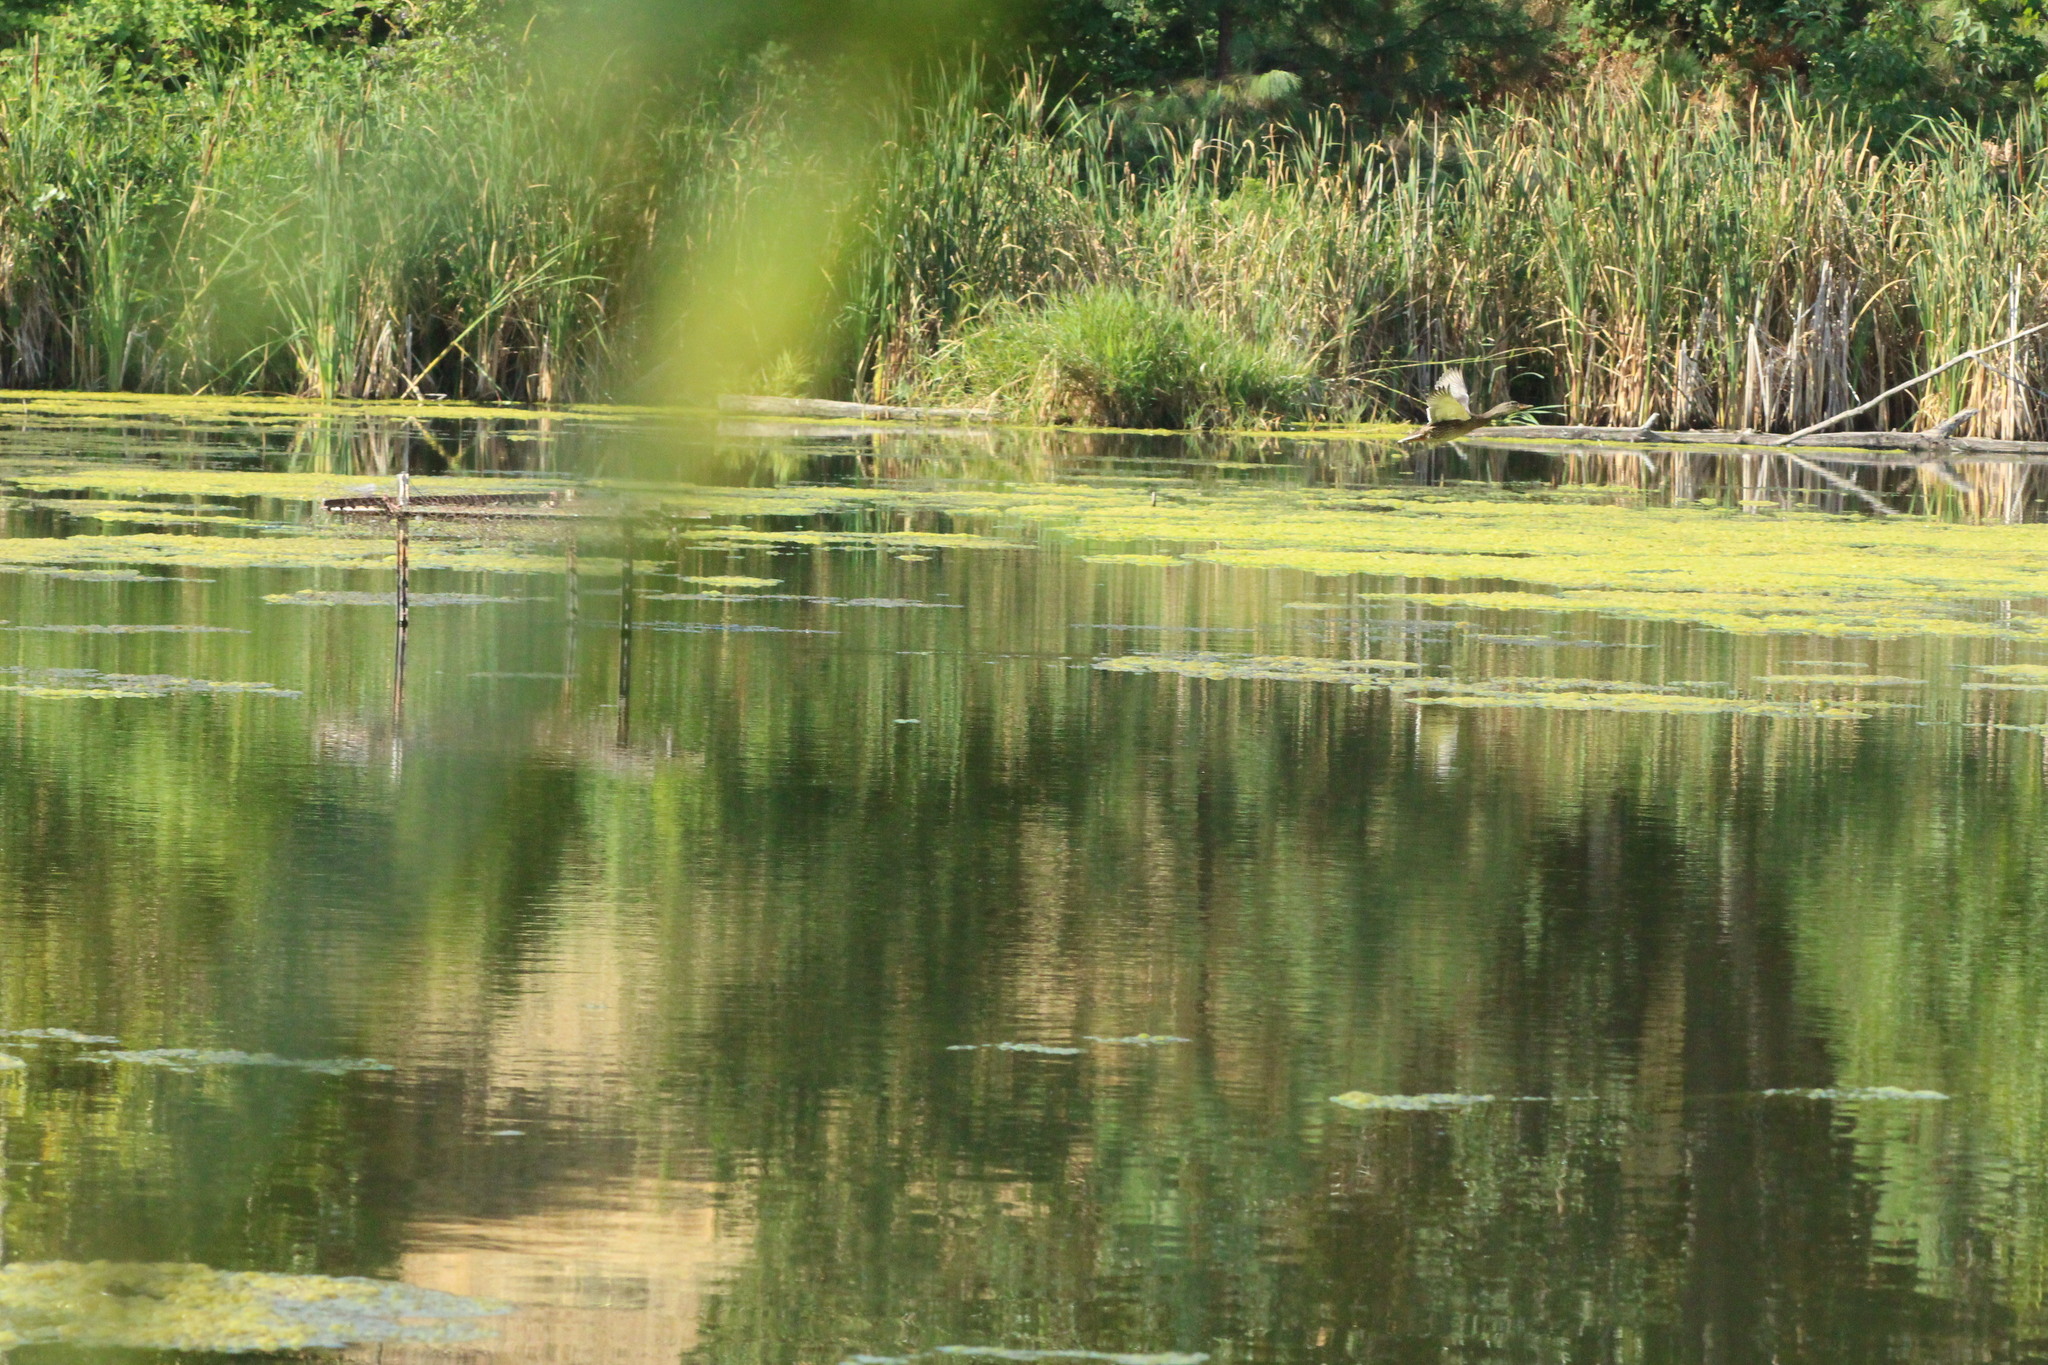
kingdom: Animalia
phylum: Chordata
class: Aves
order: Anseriformes
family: Anatidae
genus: Anas
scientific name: Anas platyrhynchos
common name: Mallard
